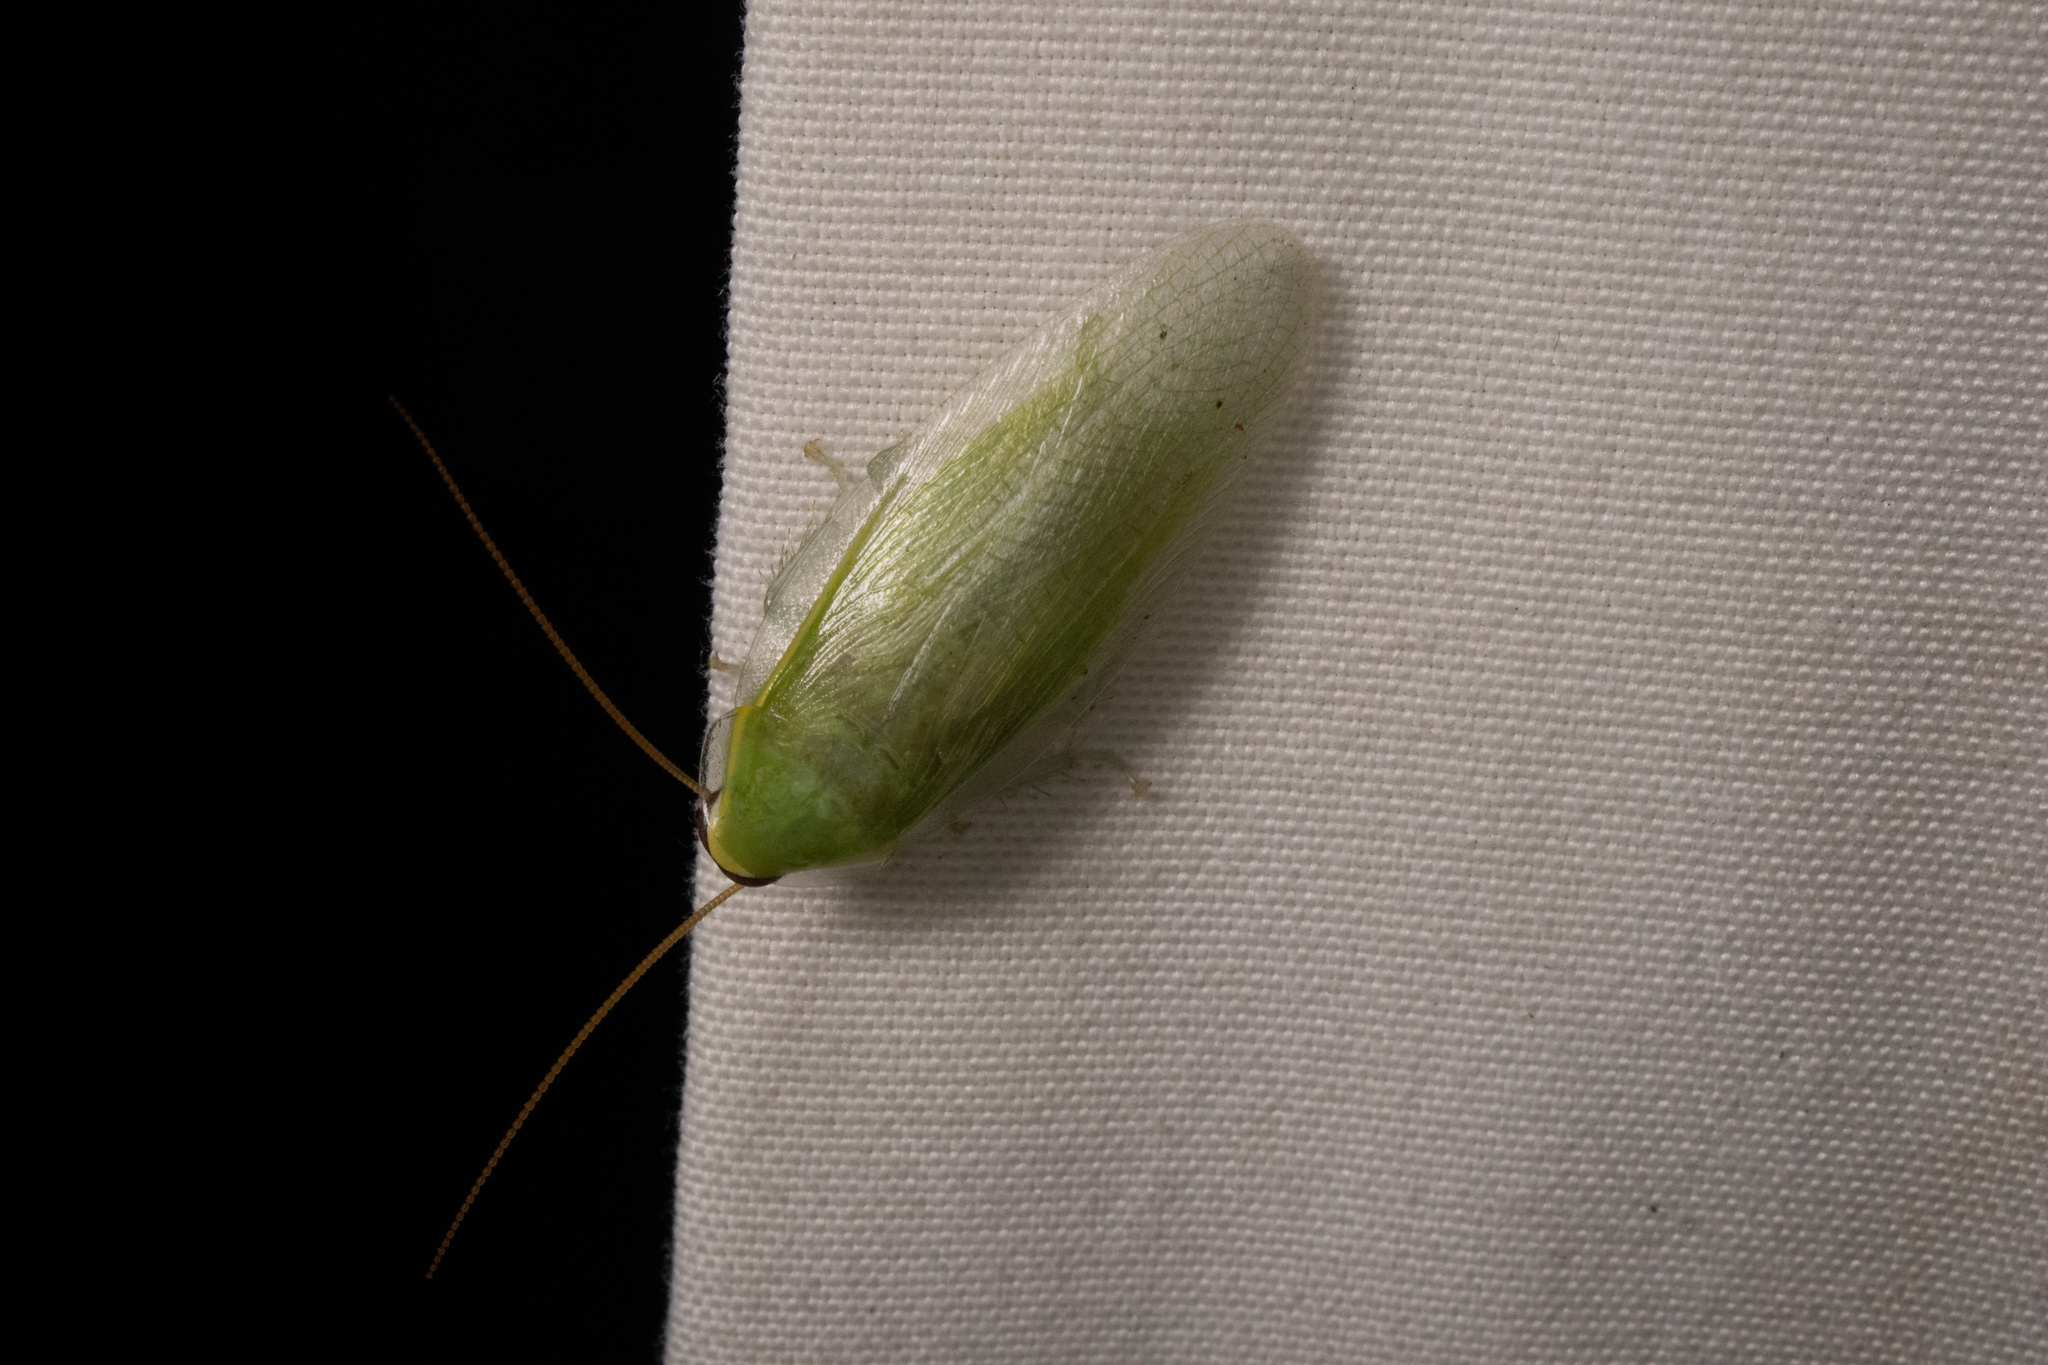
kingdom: Animalia
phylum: Arthropoda
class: Insecta
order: Blattodea
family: Blaberidae
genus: Panchlora
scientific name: Panchlora nivea
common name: Cuban cockroach
